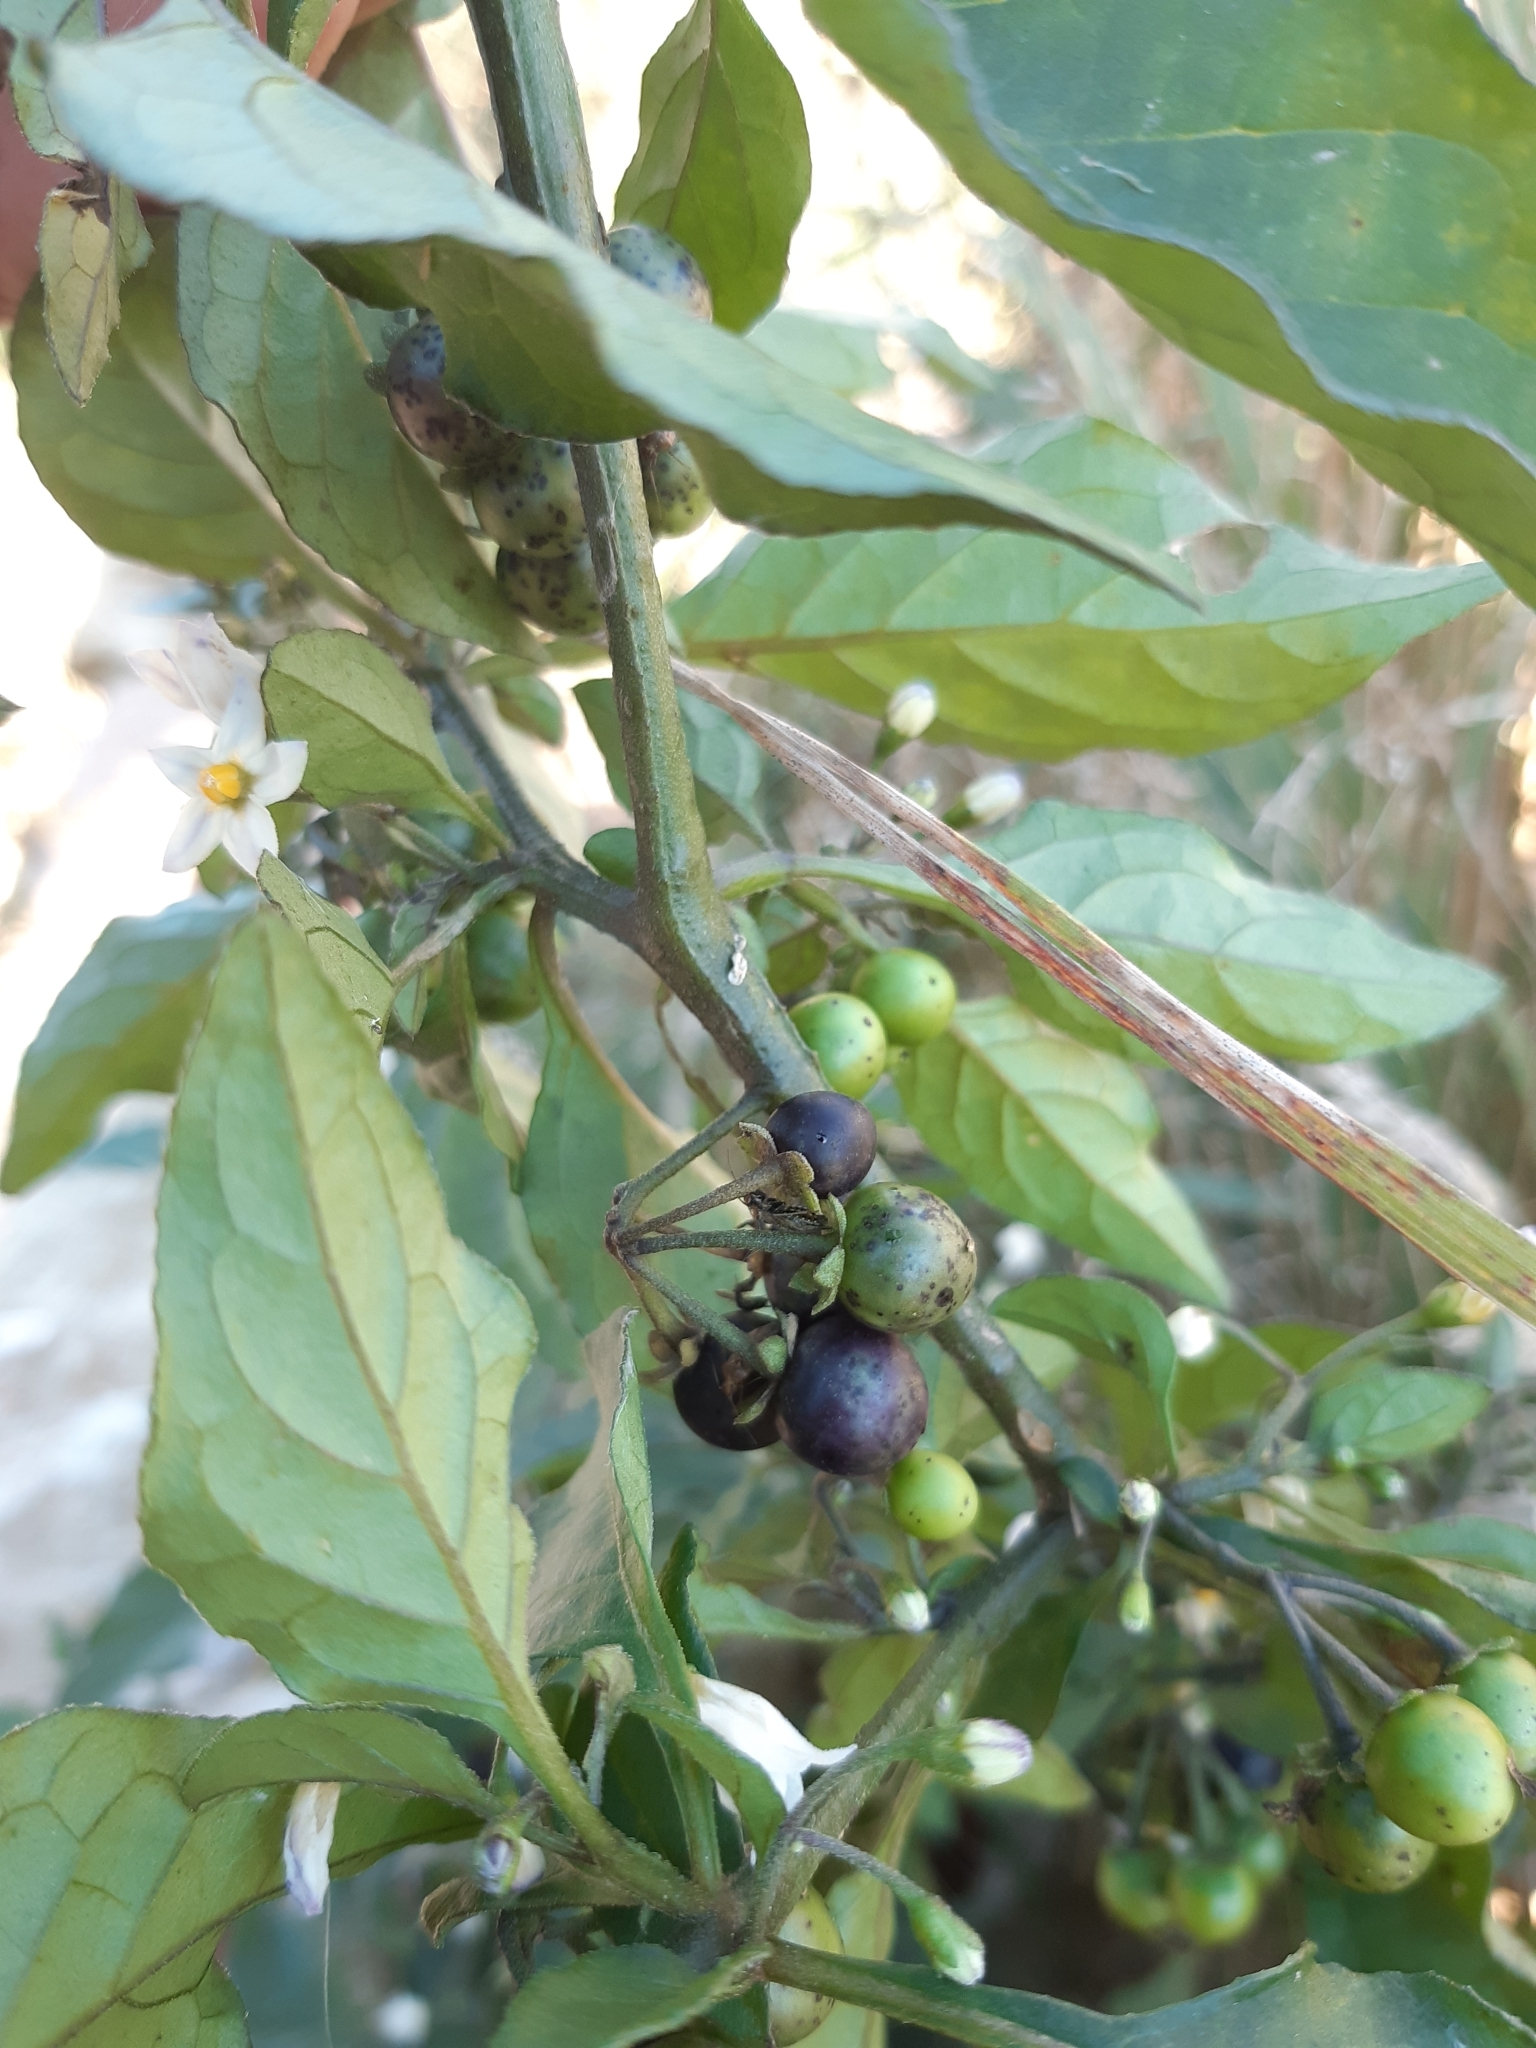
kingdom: Plantae
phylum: Tracheophyta
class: Magnoliopsida
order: Solanales
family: Solanaceae
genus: Solanum
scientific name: Solanum nigrum
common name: Black nightshade
